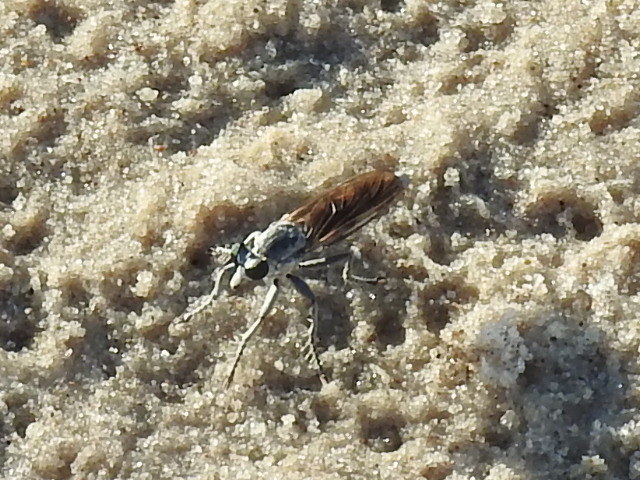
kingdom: Animalia
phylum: Arthropoda
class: Insecta
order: Diptera
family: Asilidae
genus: Stichopogon
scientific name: Stichopogon trifasciatus
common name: Three-banded robber fly
